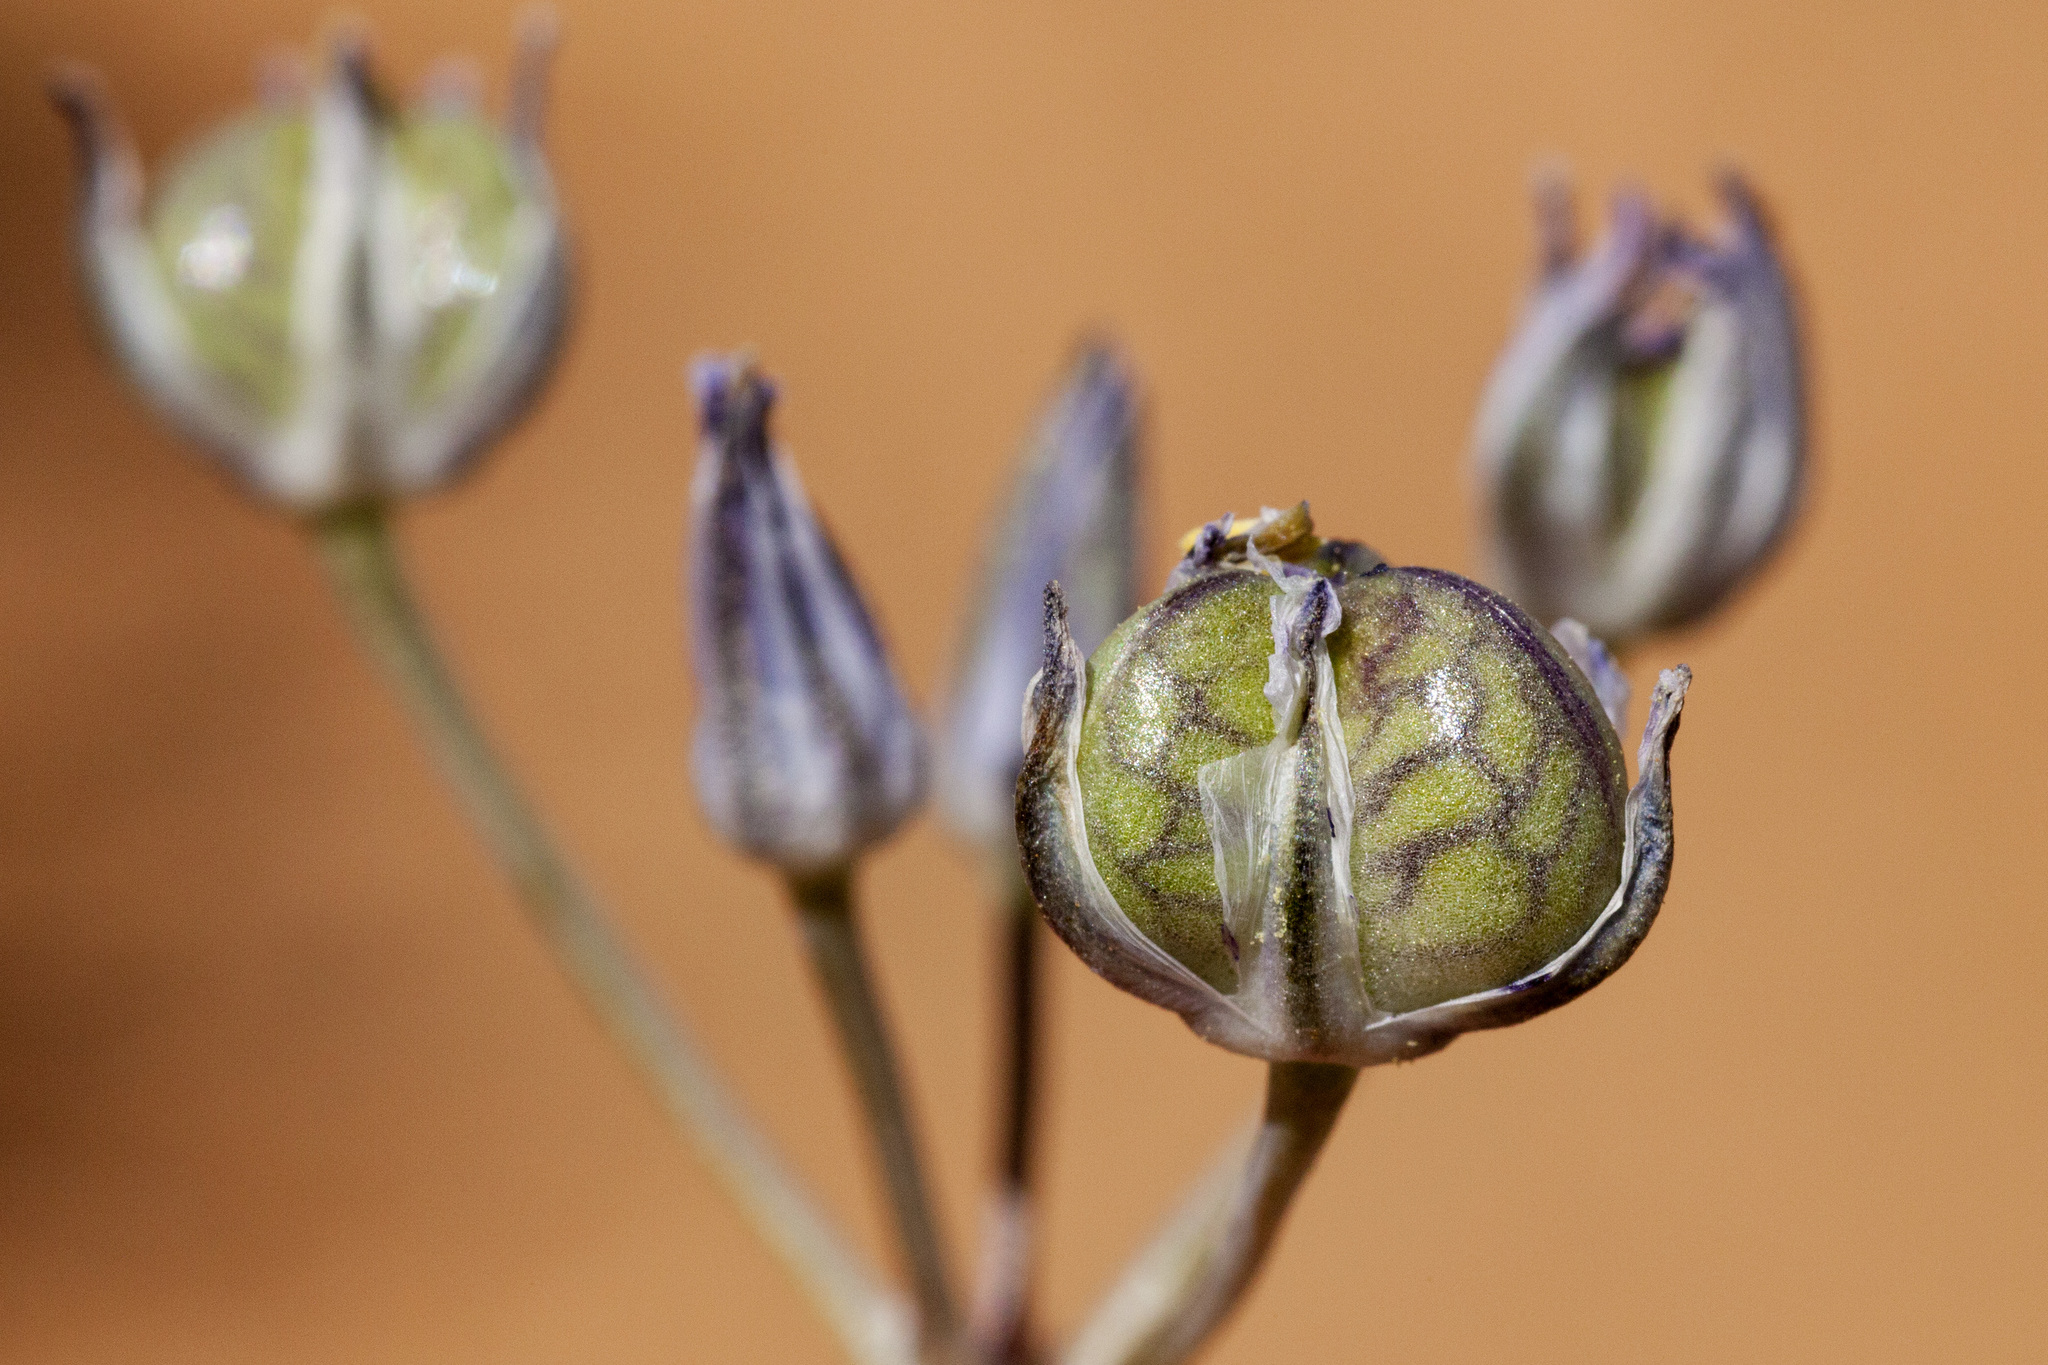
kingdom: Plantae
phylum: Tracheophyta
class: Liliopsida
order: Asparagales
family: Asparagaceae
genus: Muilla
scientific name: Muilla lordsburgana
